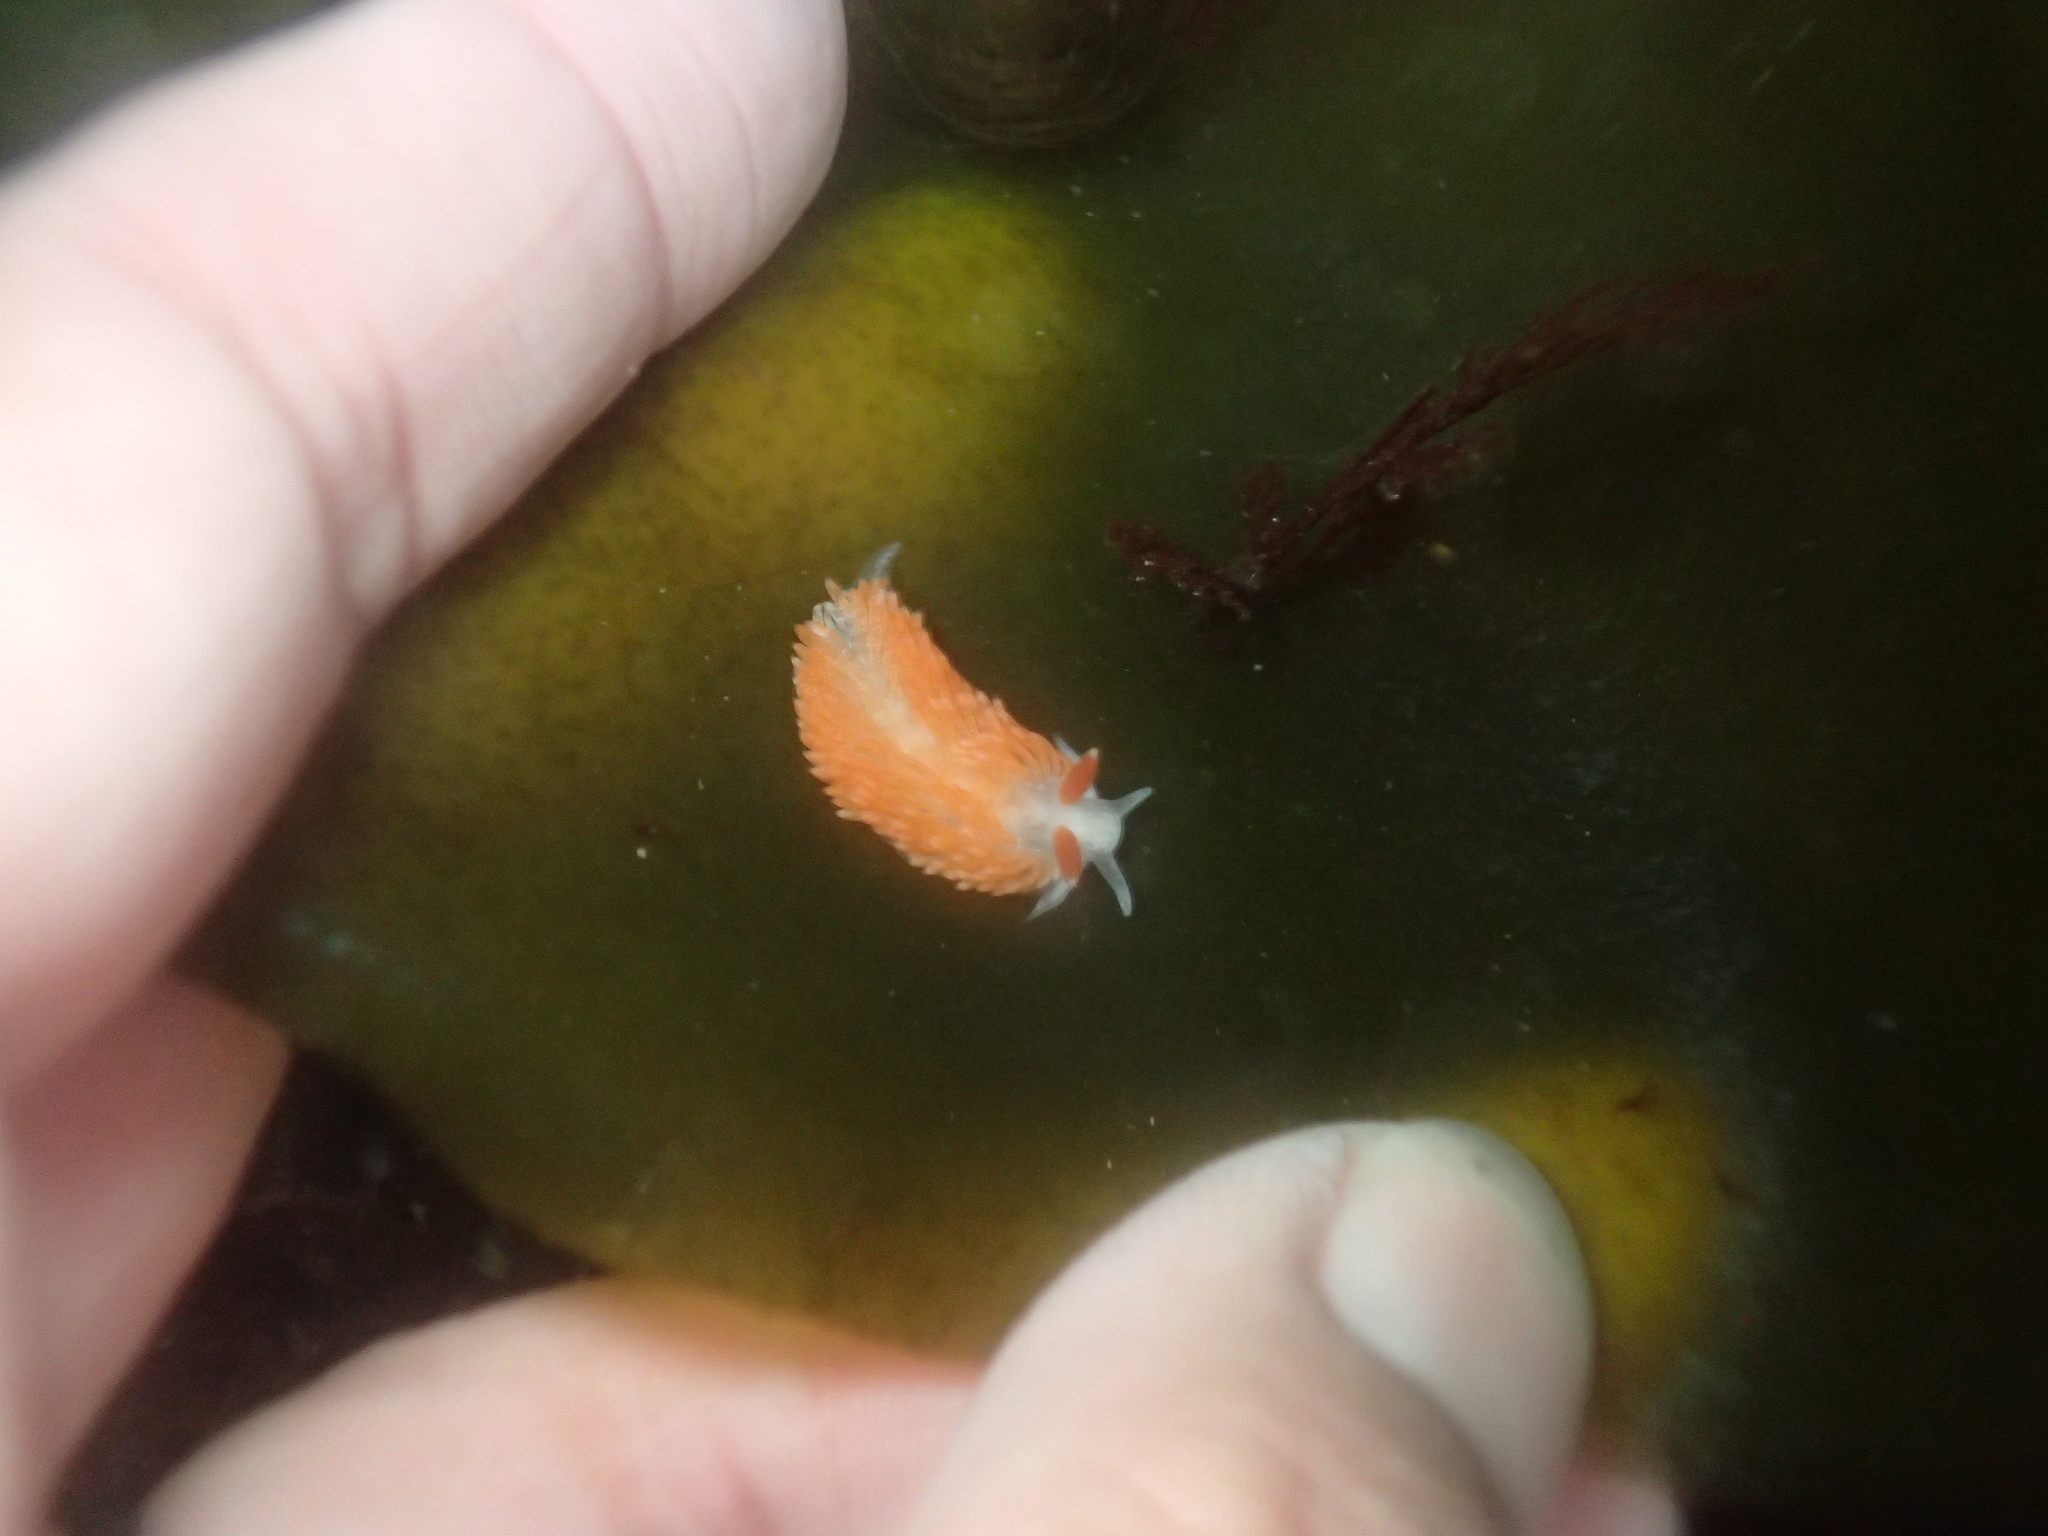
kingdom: Animalia
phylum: Mollusca
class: Gastropoda
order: Nudibranchia
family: Aeolidiidae
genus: Anteaeolidiella
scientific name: Anteaeolidiella oliviae
